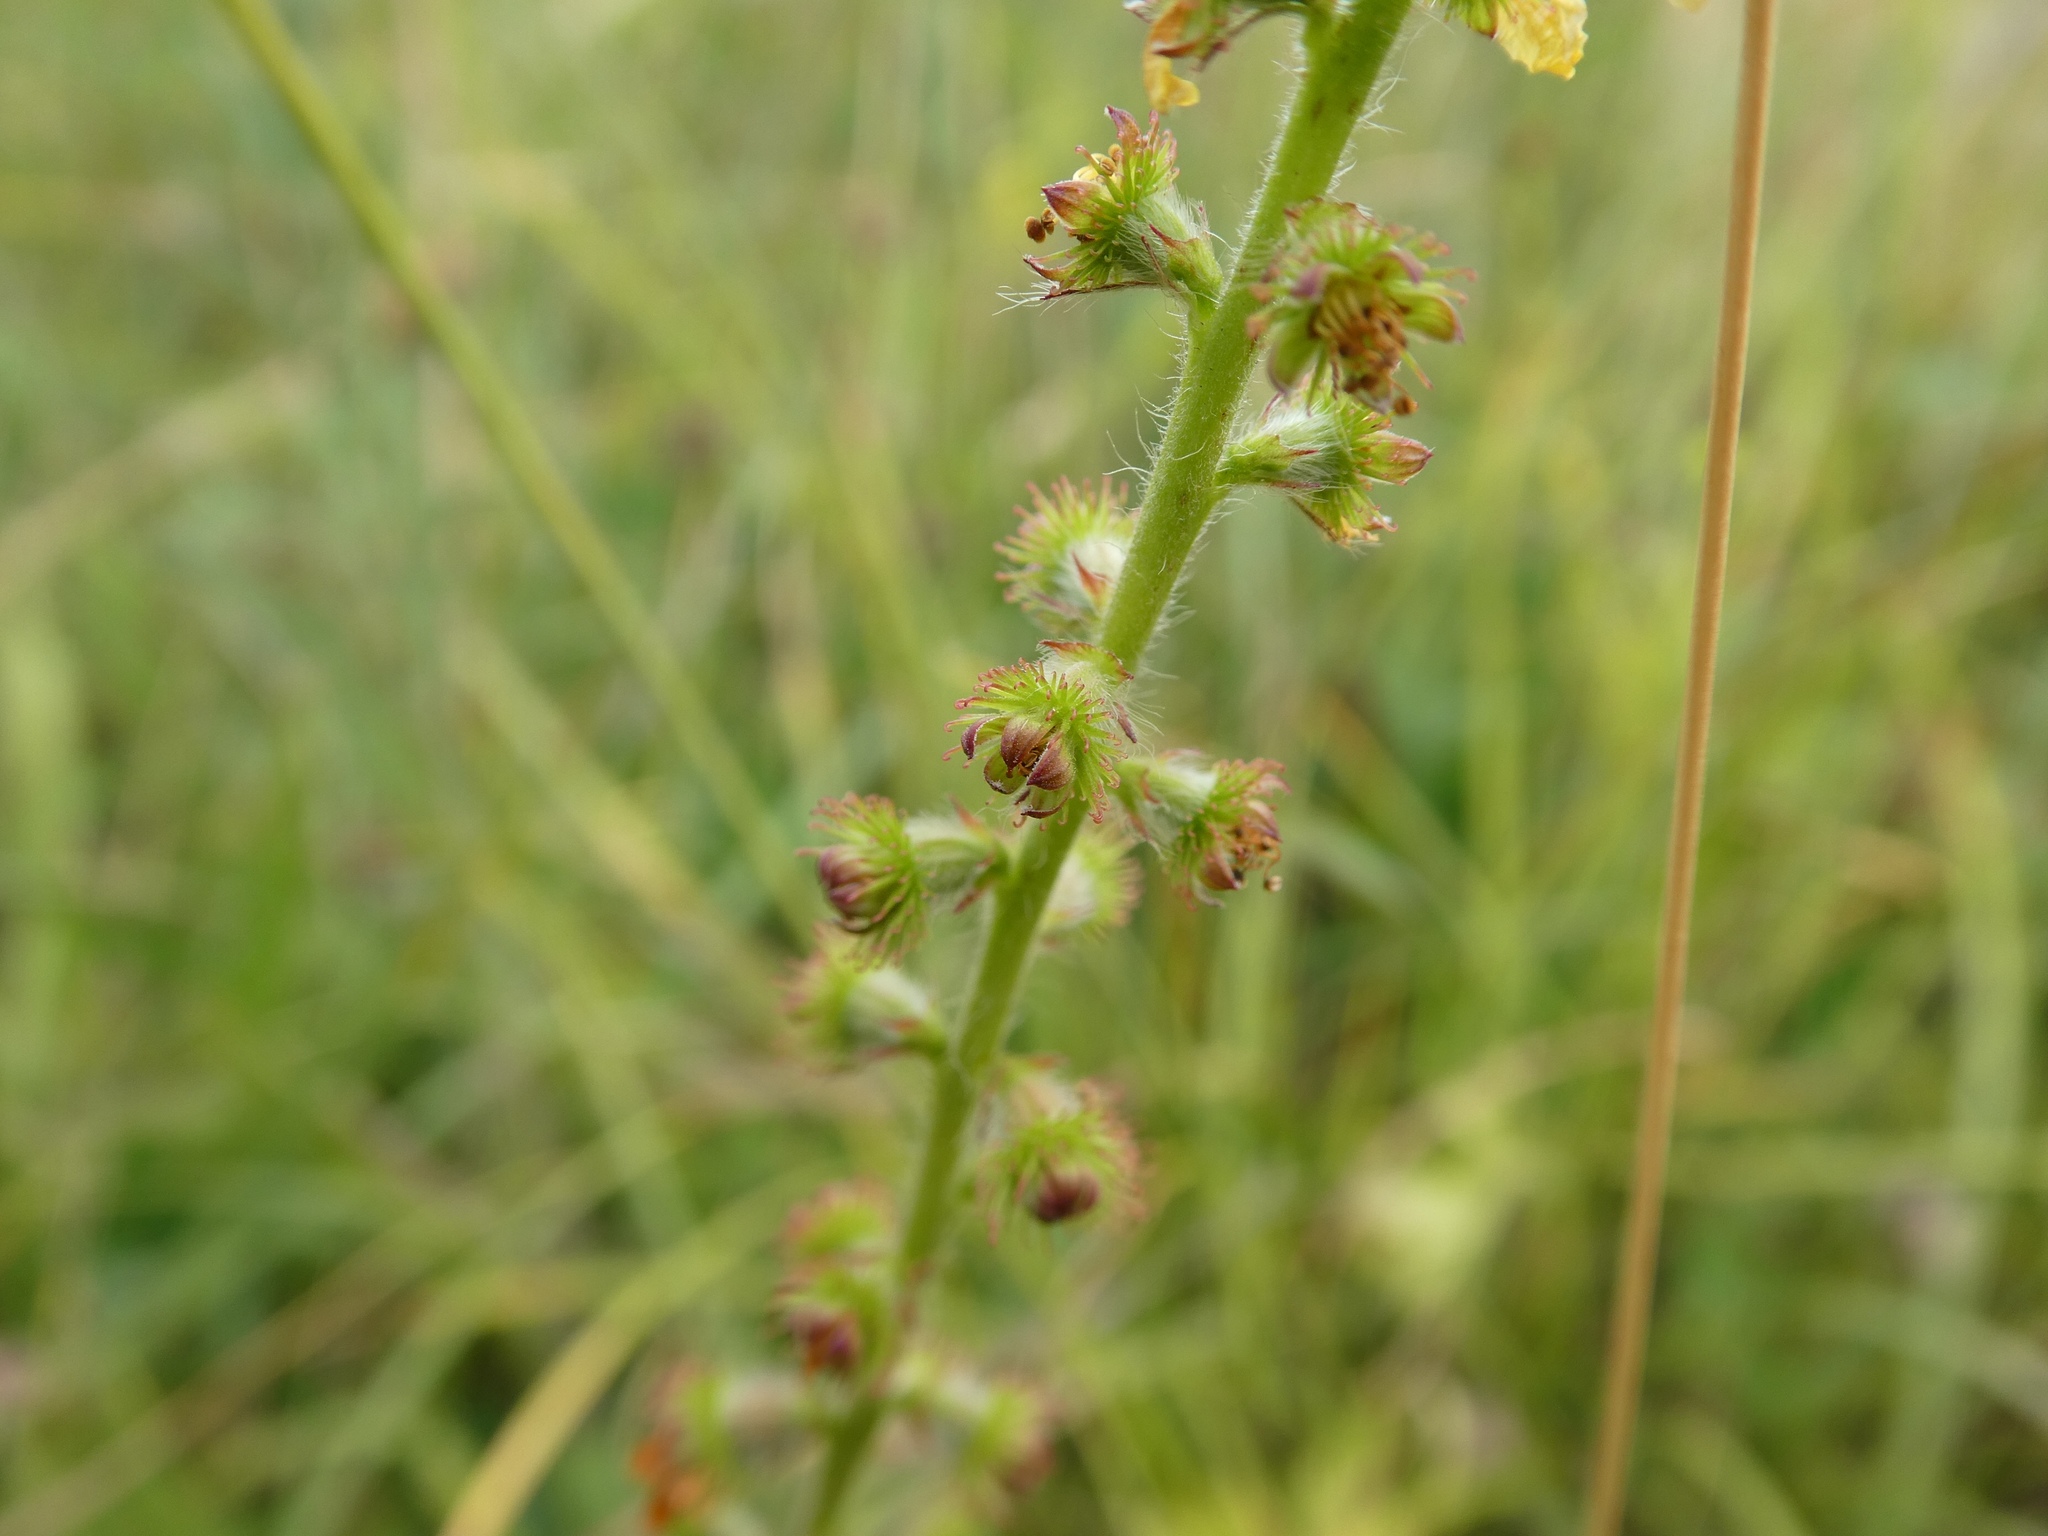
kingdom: Plantae
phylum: Tracheophyta
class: Magnoliopsida
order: Rosales
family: Rosaceae
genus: Agrimonia
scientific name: Agrimonia eupatoria
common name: Agrimony
